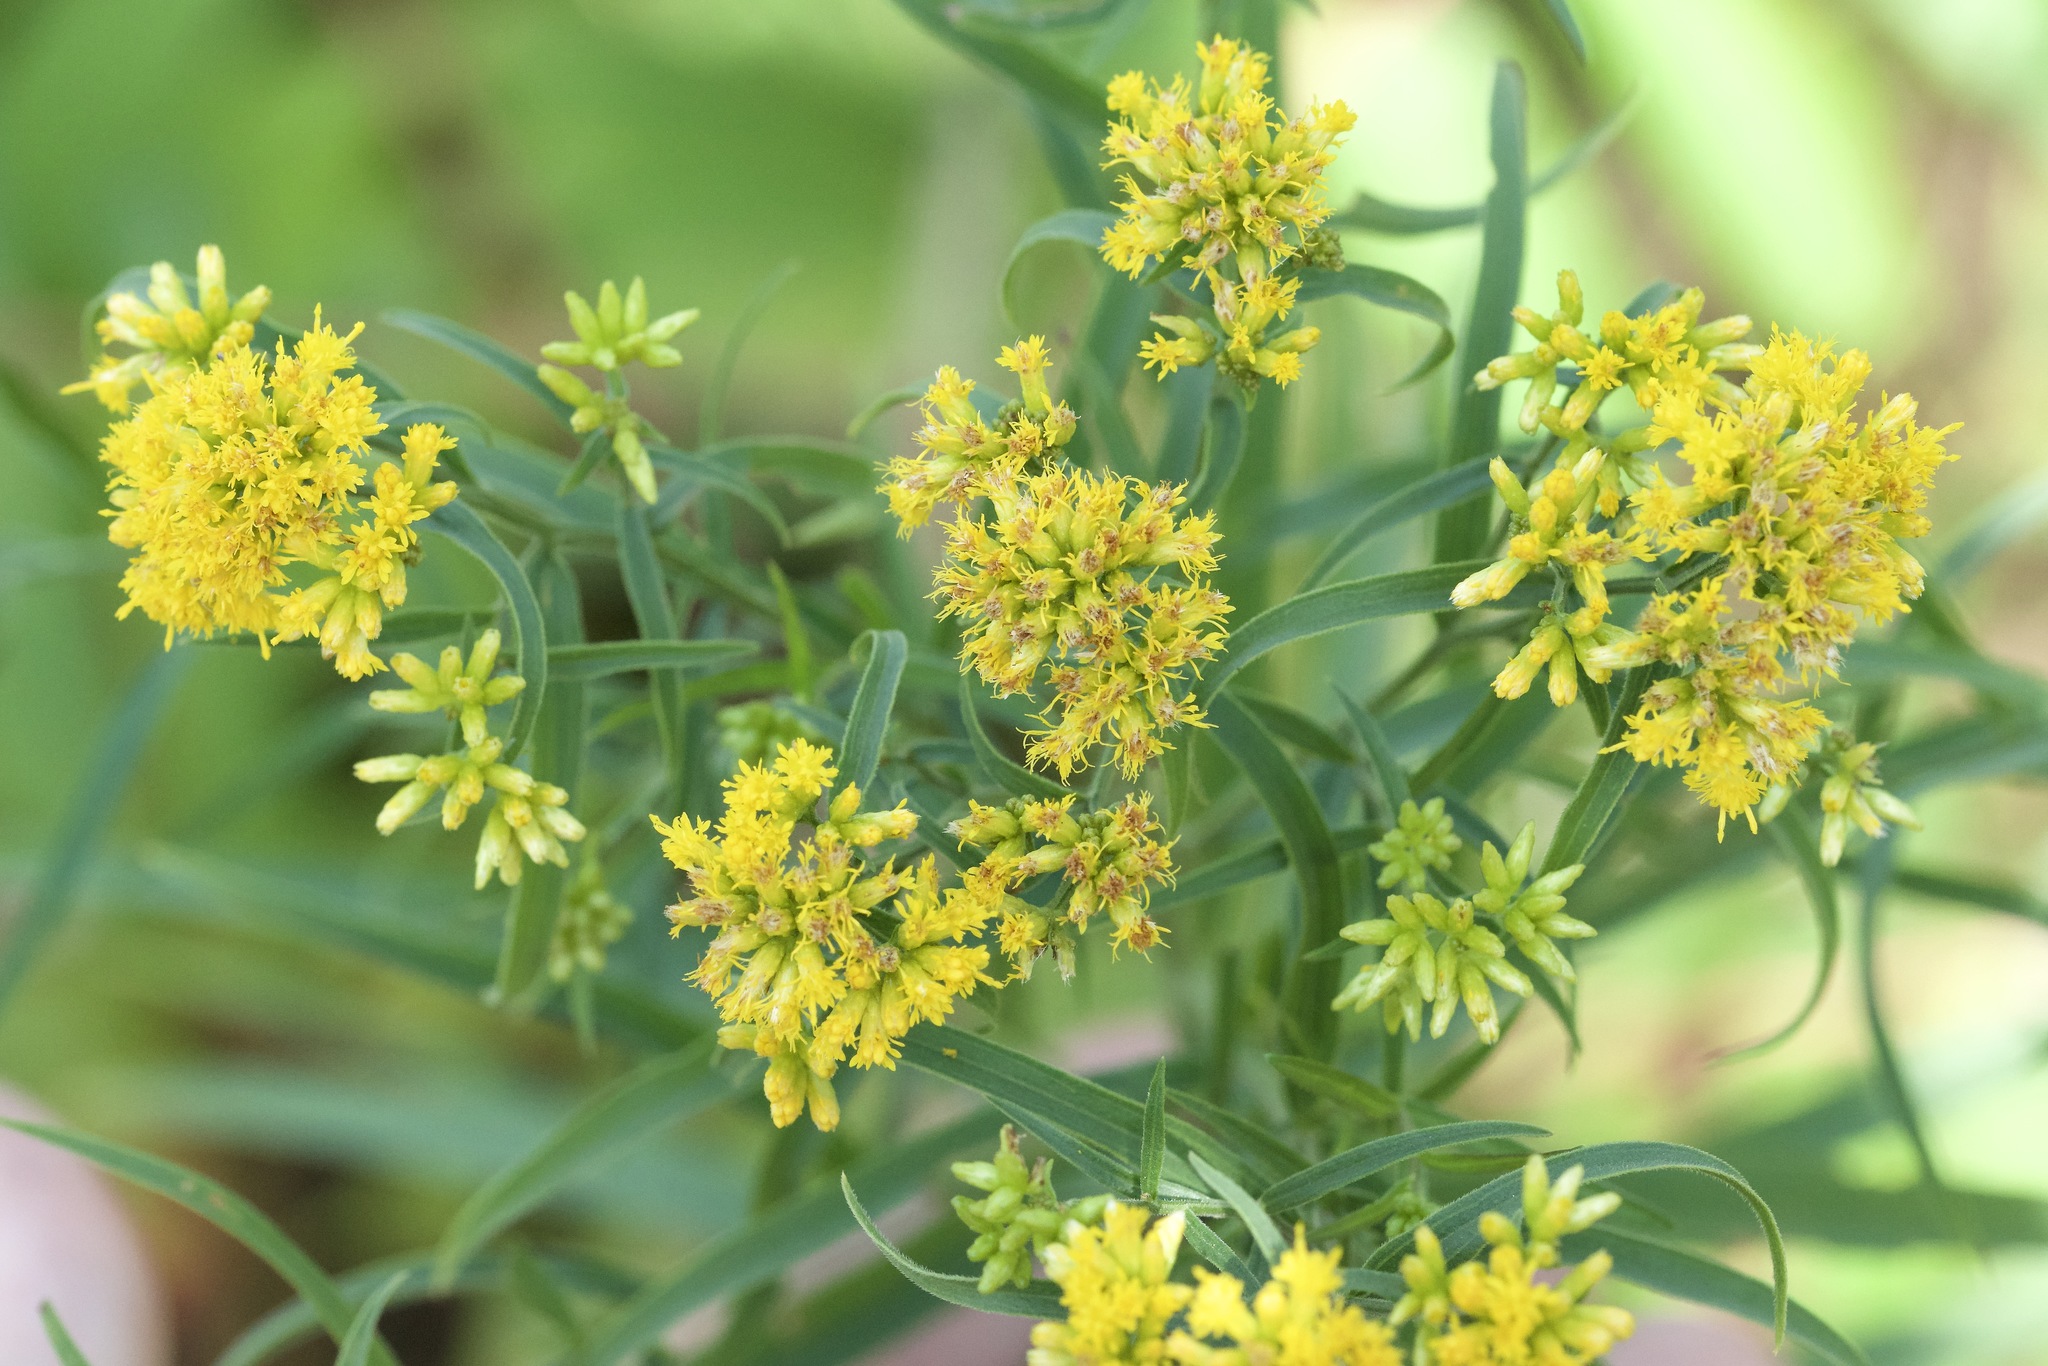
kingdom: Plantae
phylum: Tracheophyta
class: Magnoliopsida
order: Asterales
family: Asteraceae
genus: Euthamia
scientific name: Euthamia graminifolia
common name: Common goldentop
